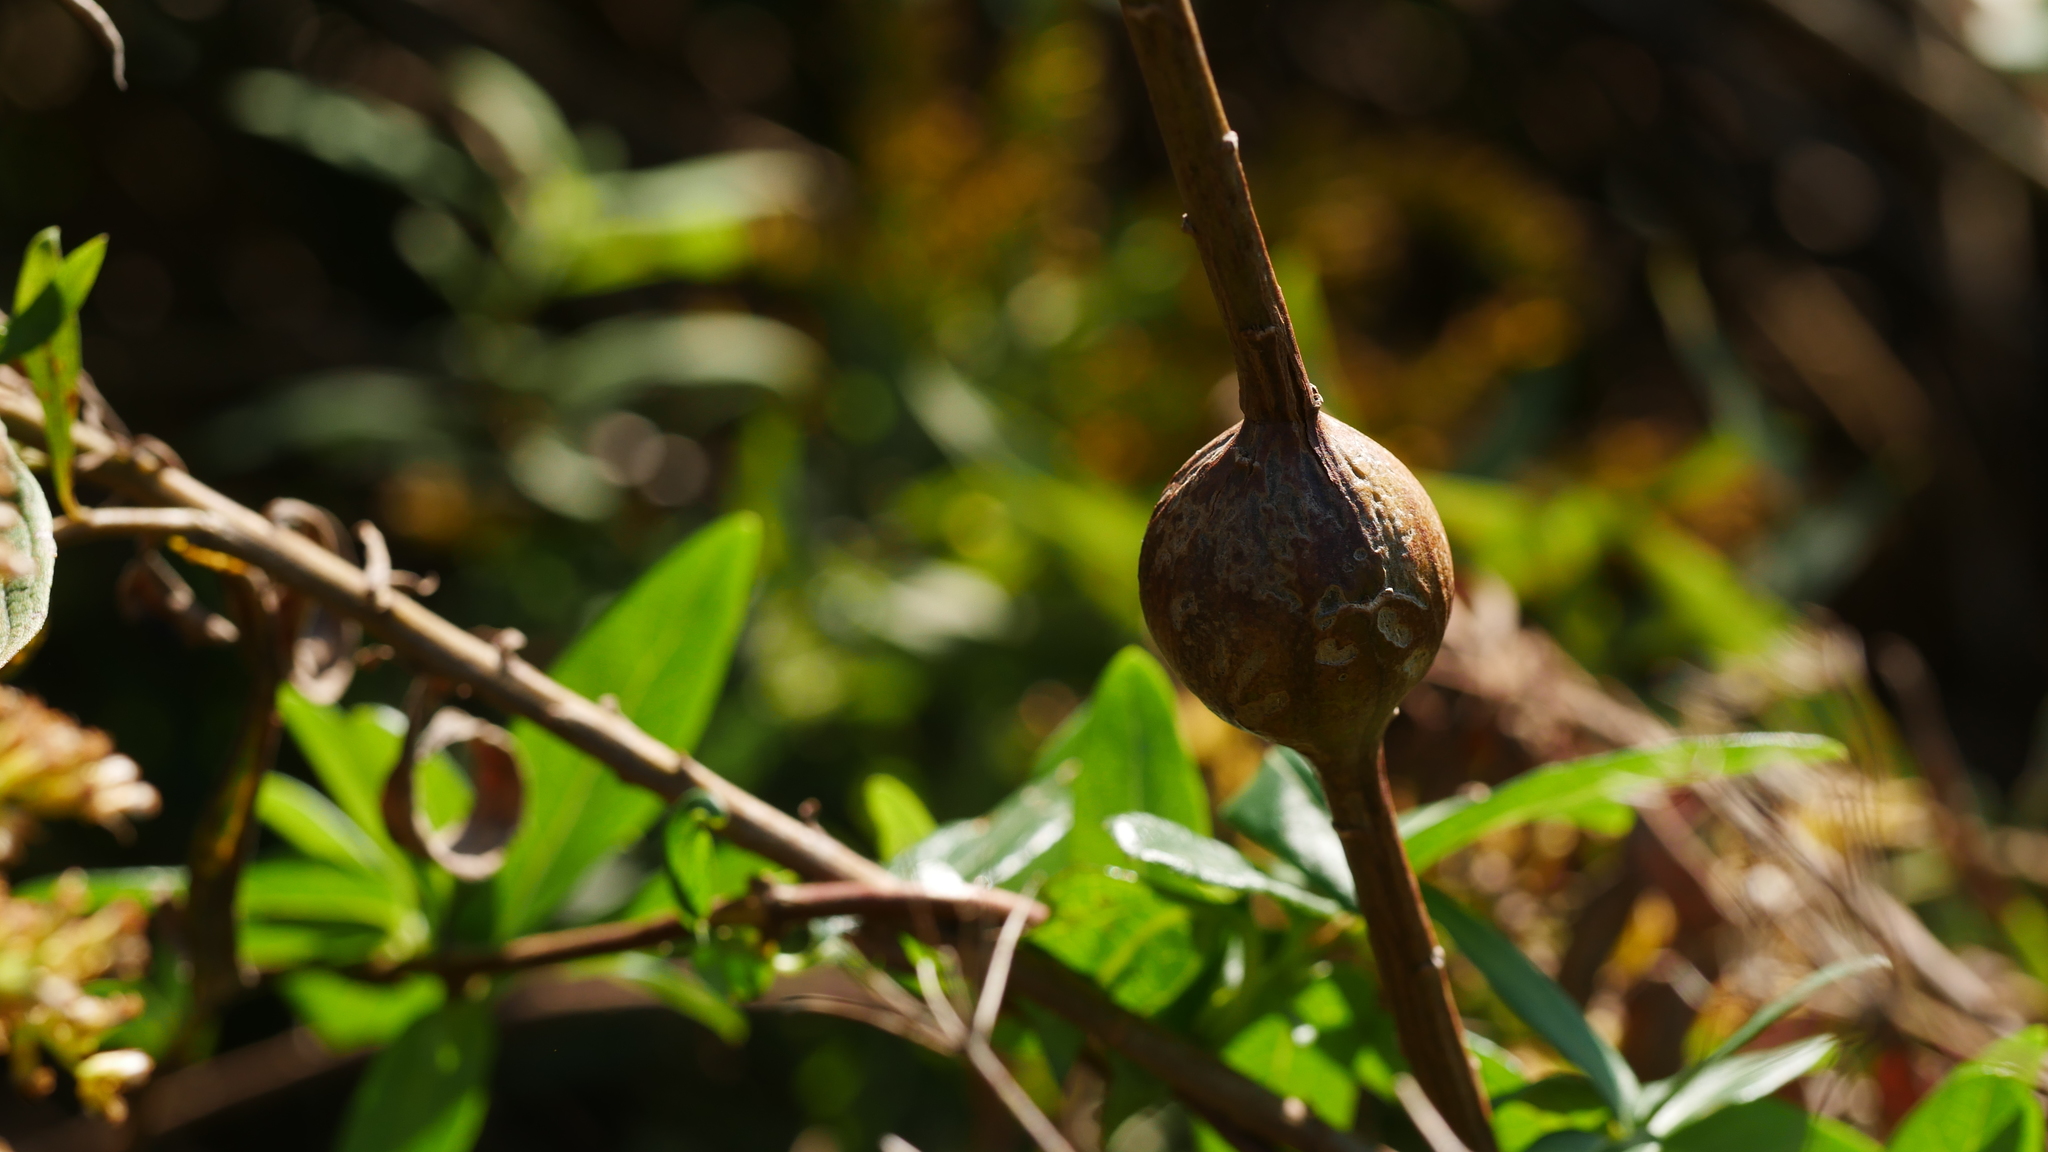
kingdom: Animalia
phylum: Arthropoda
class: Insecta
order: Diptera
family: Tephritidae
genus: Eurosta
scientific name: Eurosta solidaginis
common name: Goldenrod gall fly
